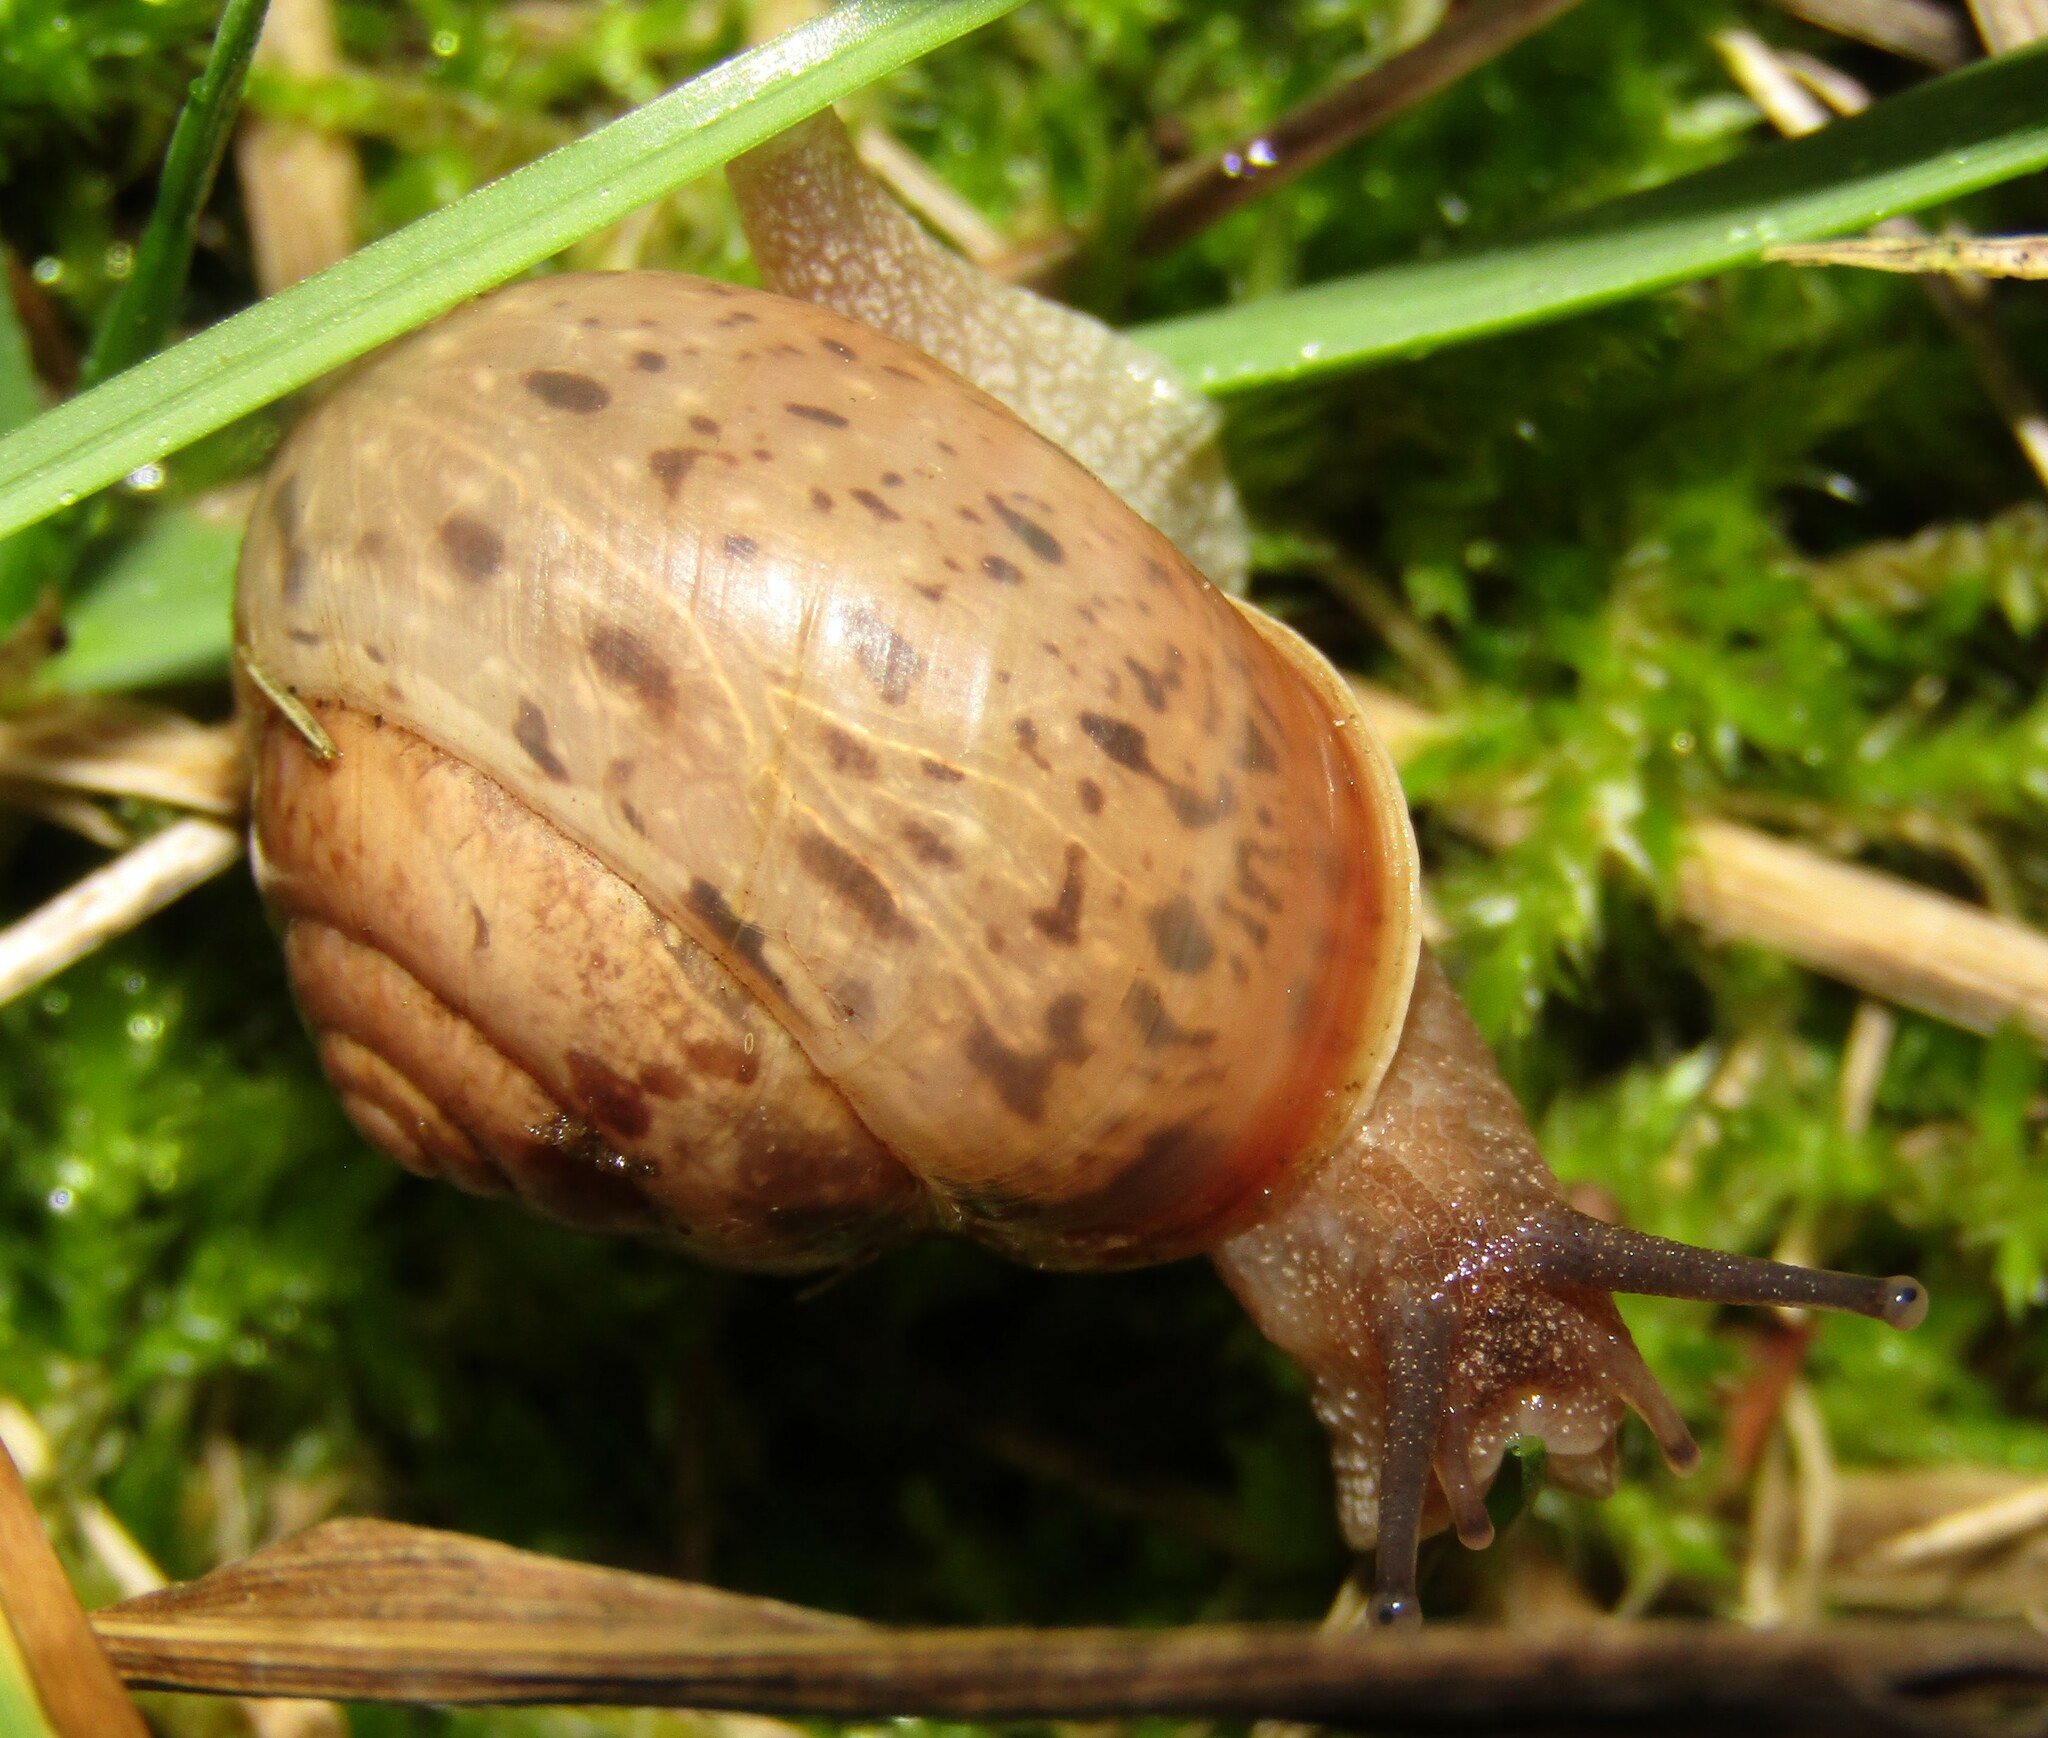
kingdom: Animalia
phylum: Mollusca
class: Gastropoda
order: Stylommatophora
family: Camaenidae
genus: Fruticicola
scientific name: Fruticicola fruticum
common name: Bush snail
